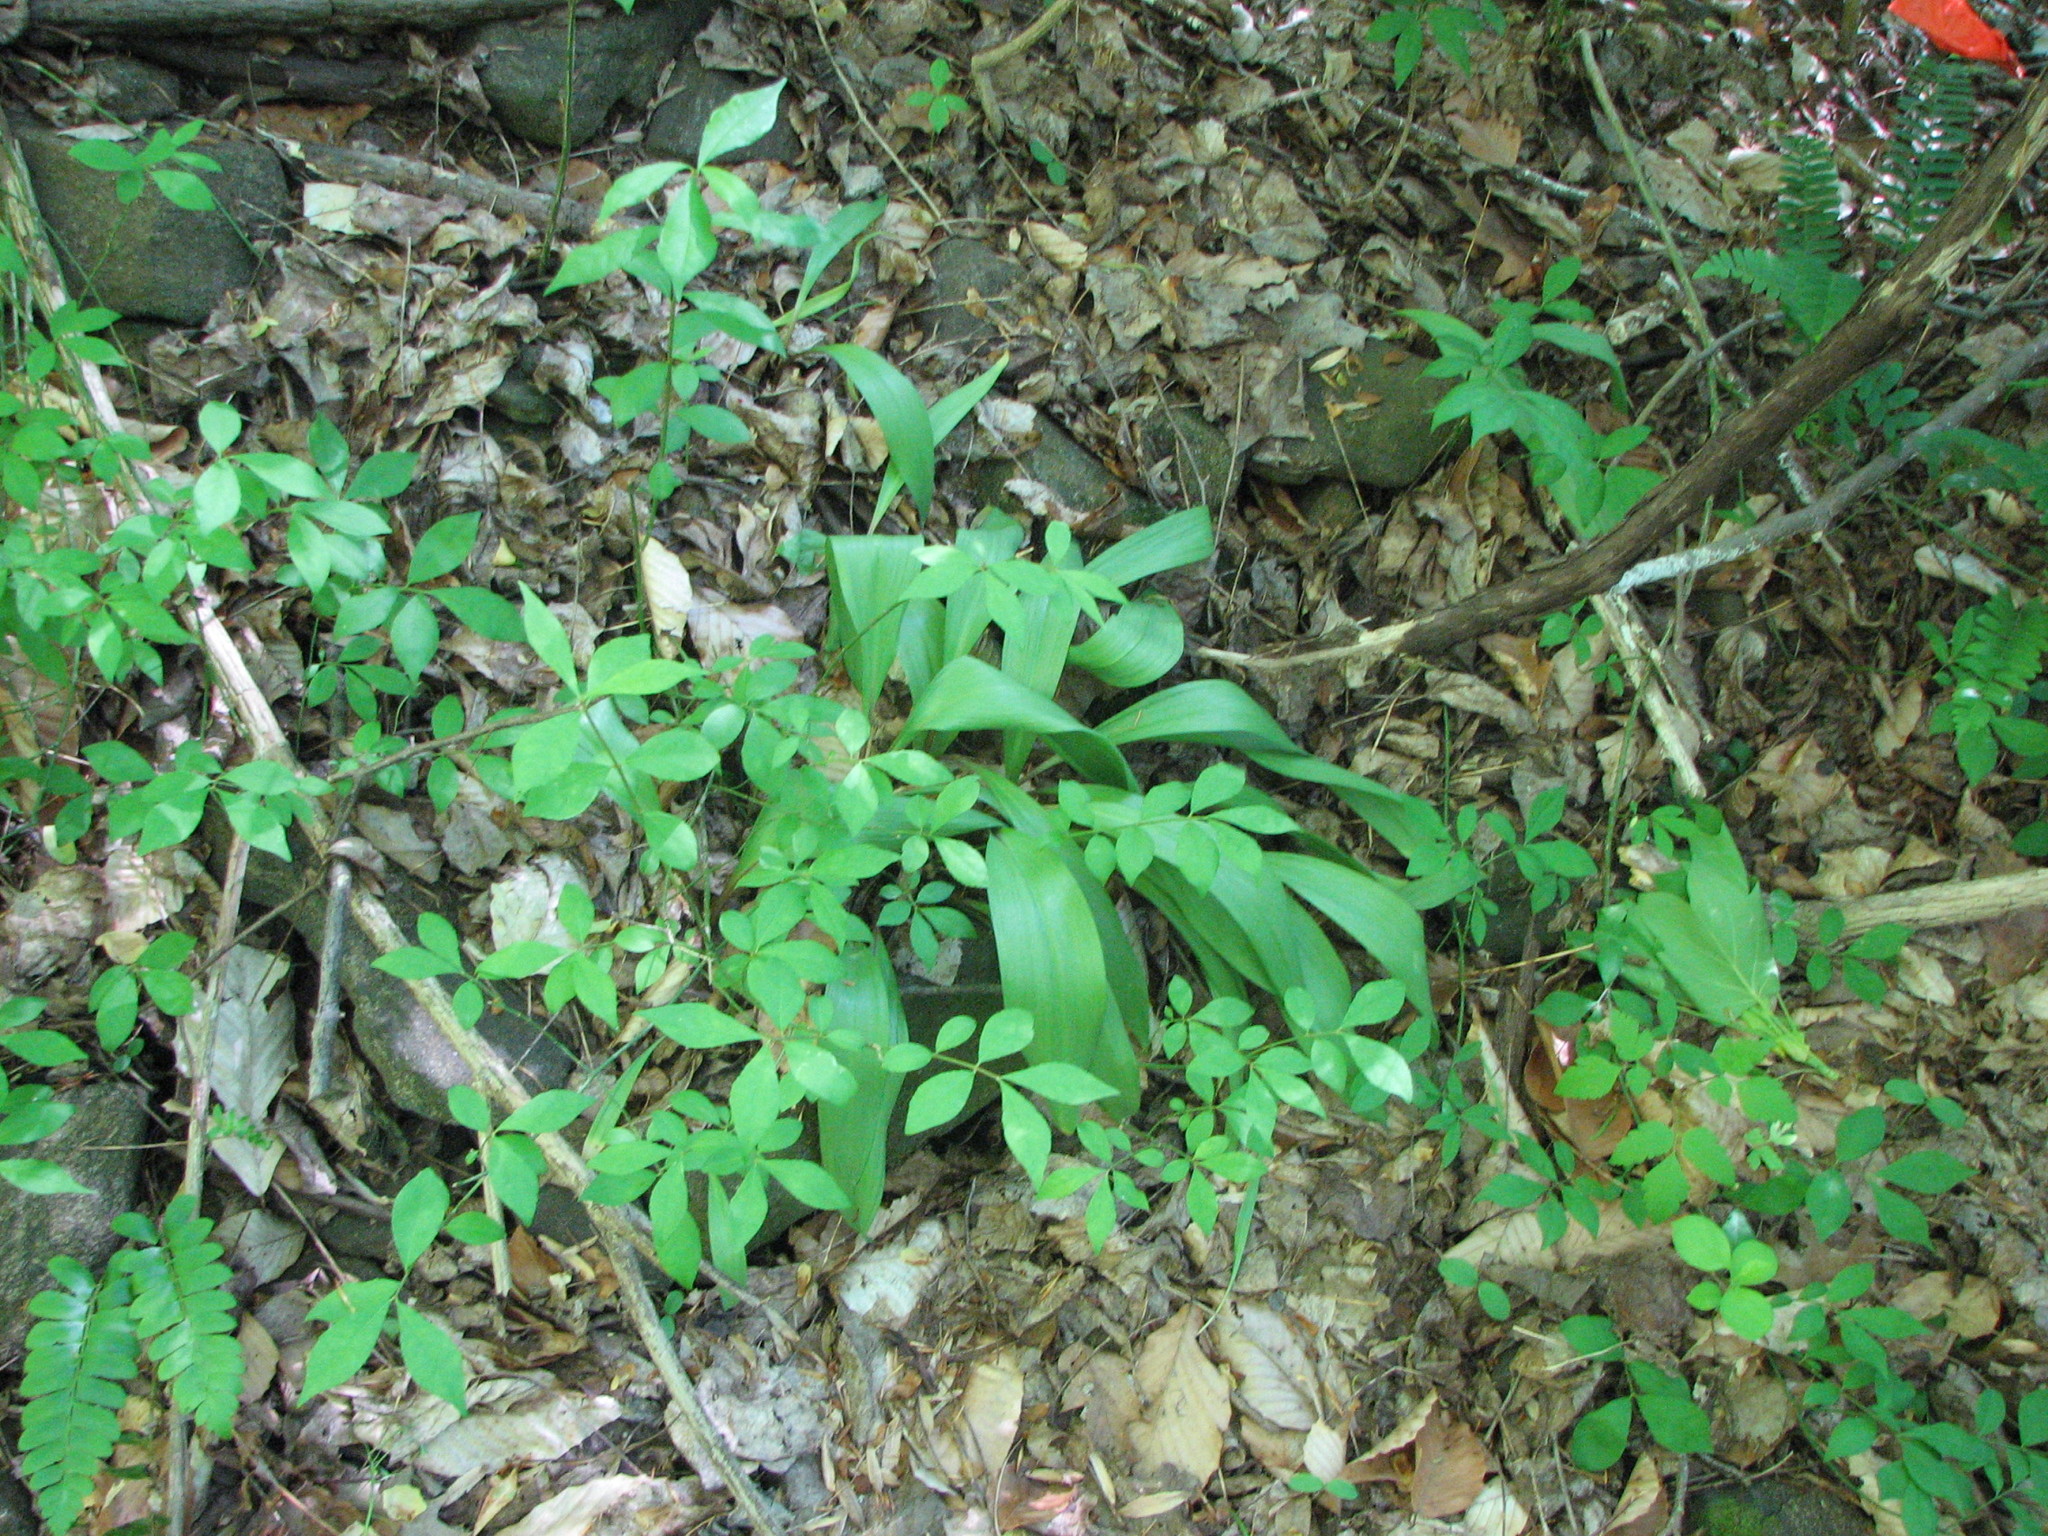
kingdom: Plantae
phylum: Tracheophyta
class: Liliopsida
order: Asparagales
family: Amaryllidaceae
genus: Allium
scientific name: Allium tricoccum
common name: Ramp
